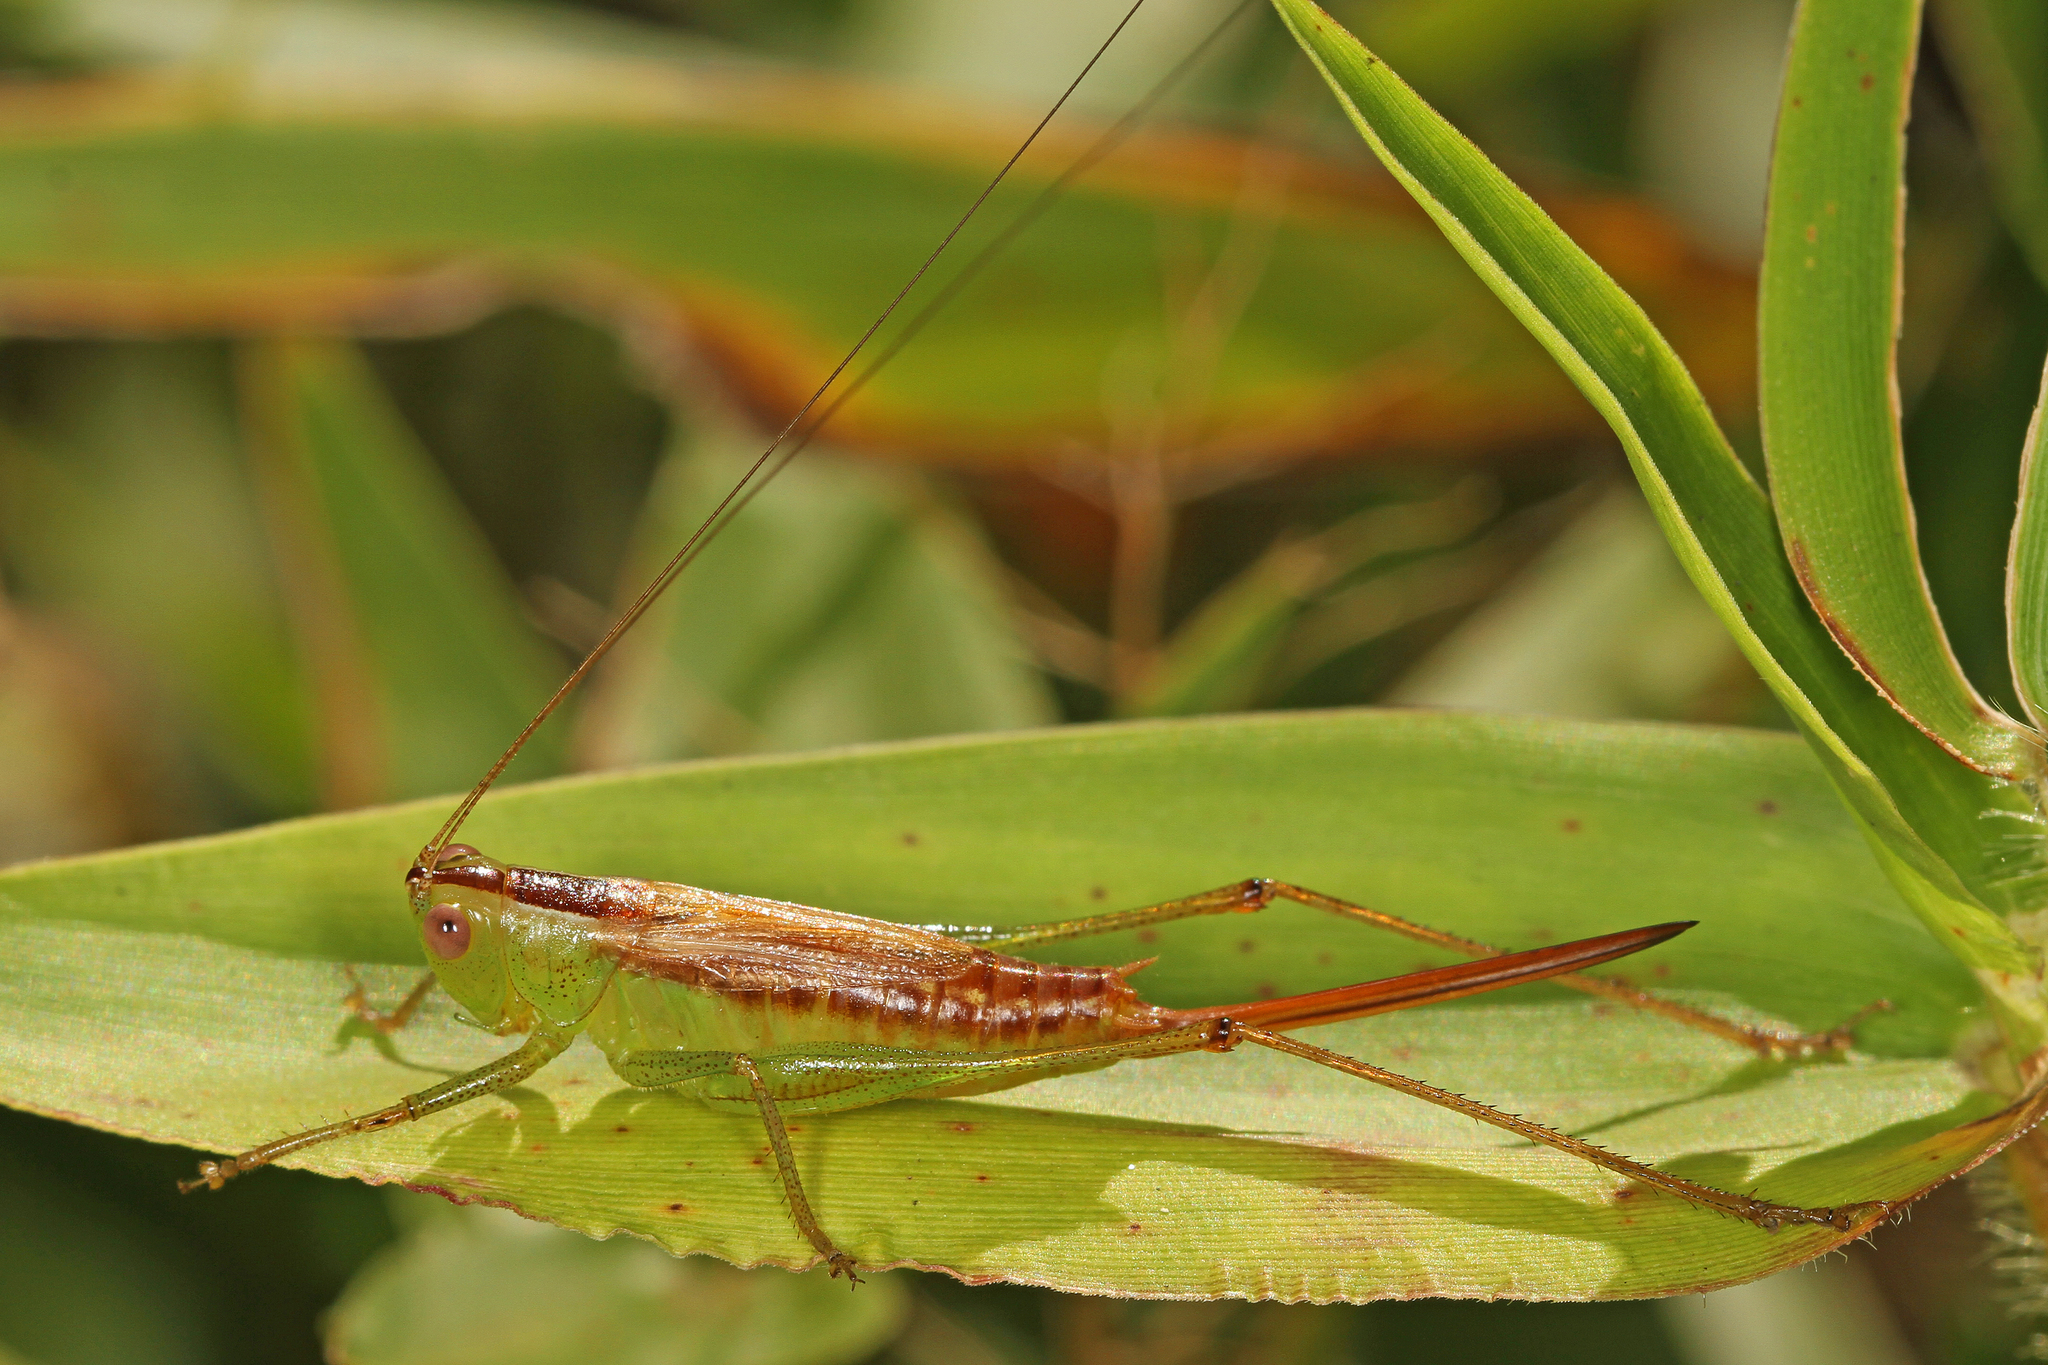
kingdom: Animalia
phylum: Arthropoda
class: Insecta
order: Orthoptera
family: Tettigoniidae
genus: Conocephalus
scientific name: Conocephalus brevipennis
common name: Short-winged meadow katydid
